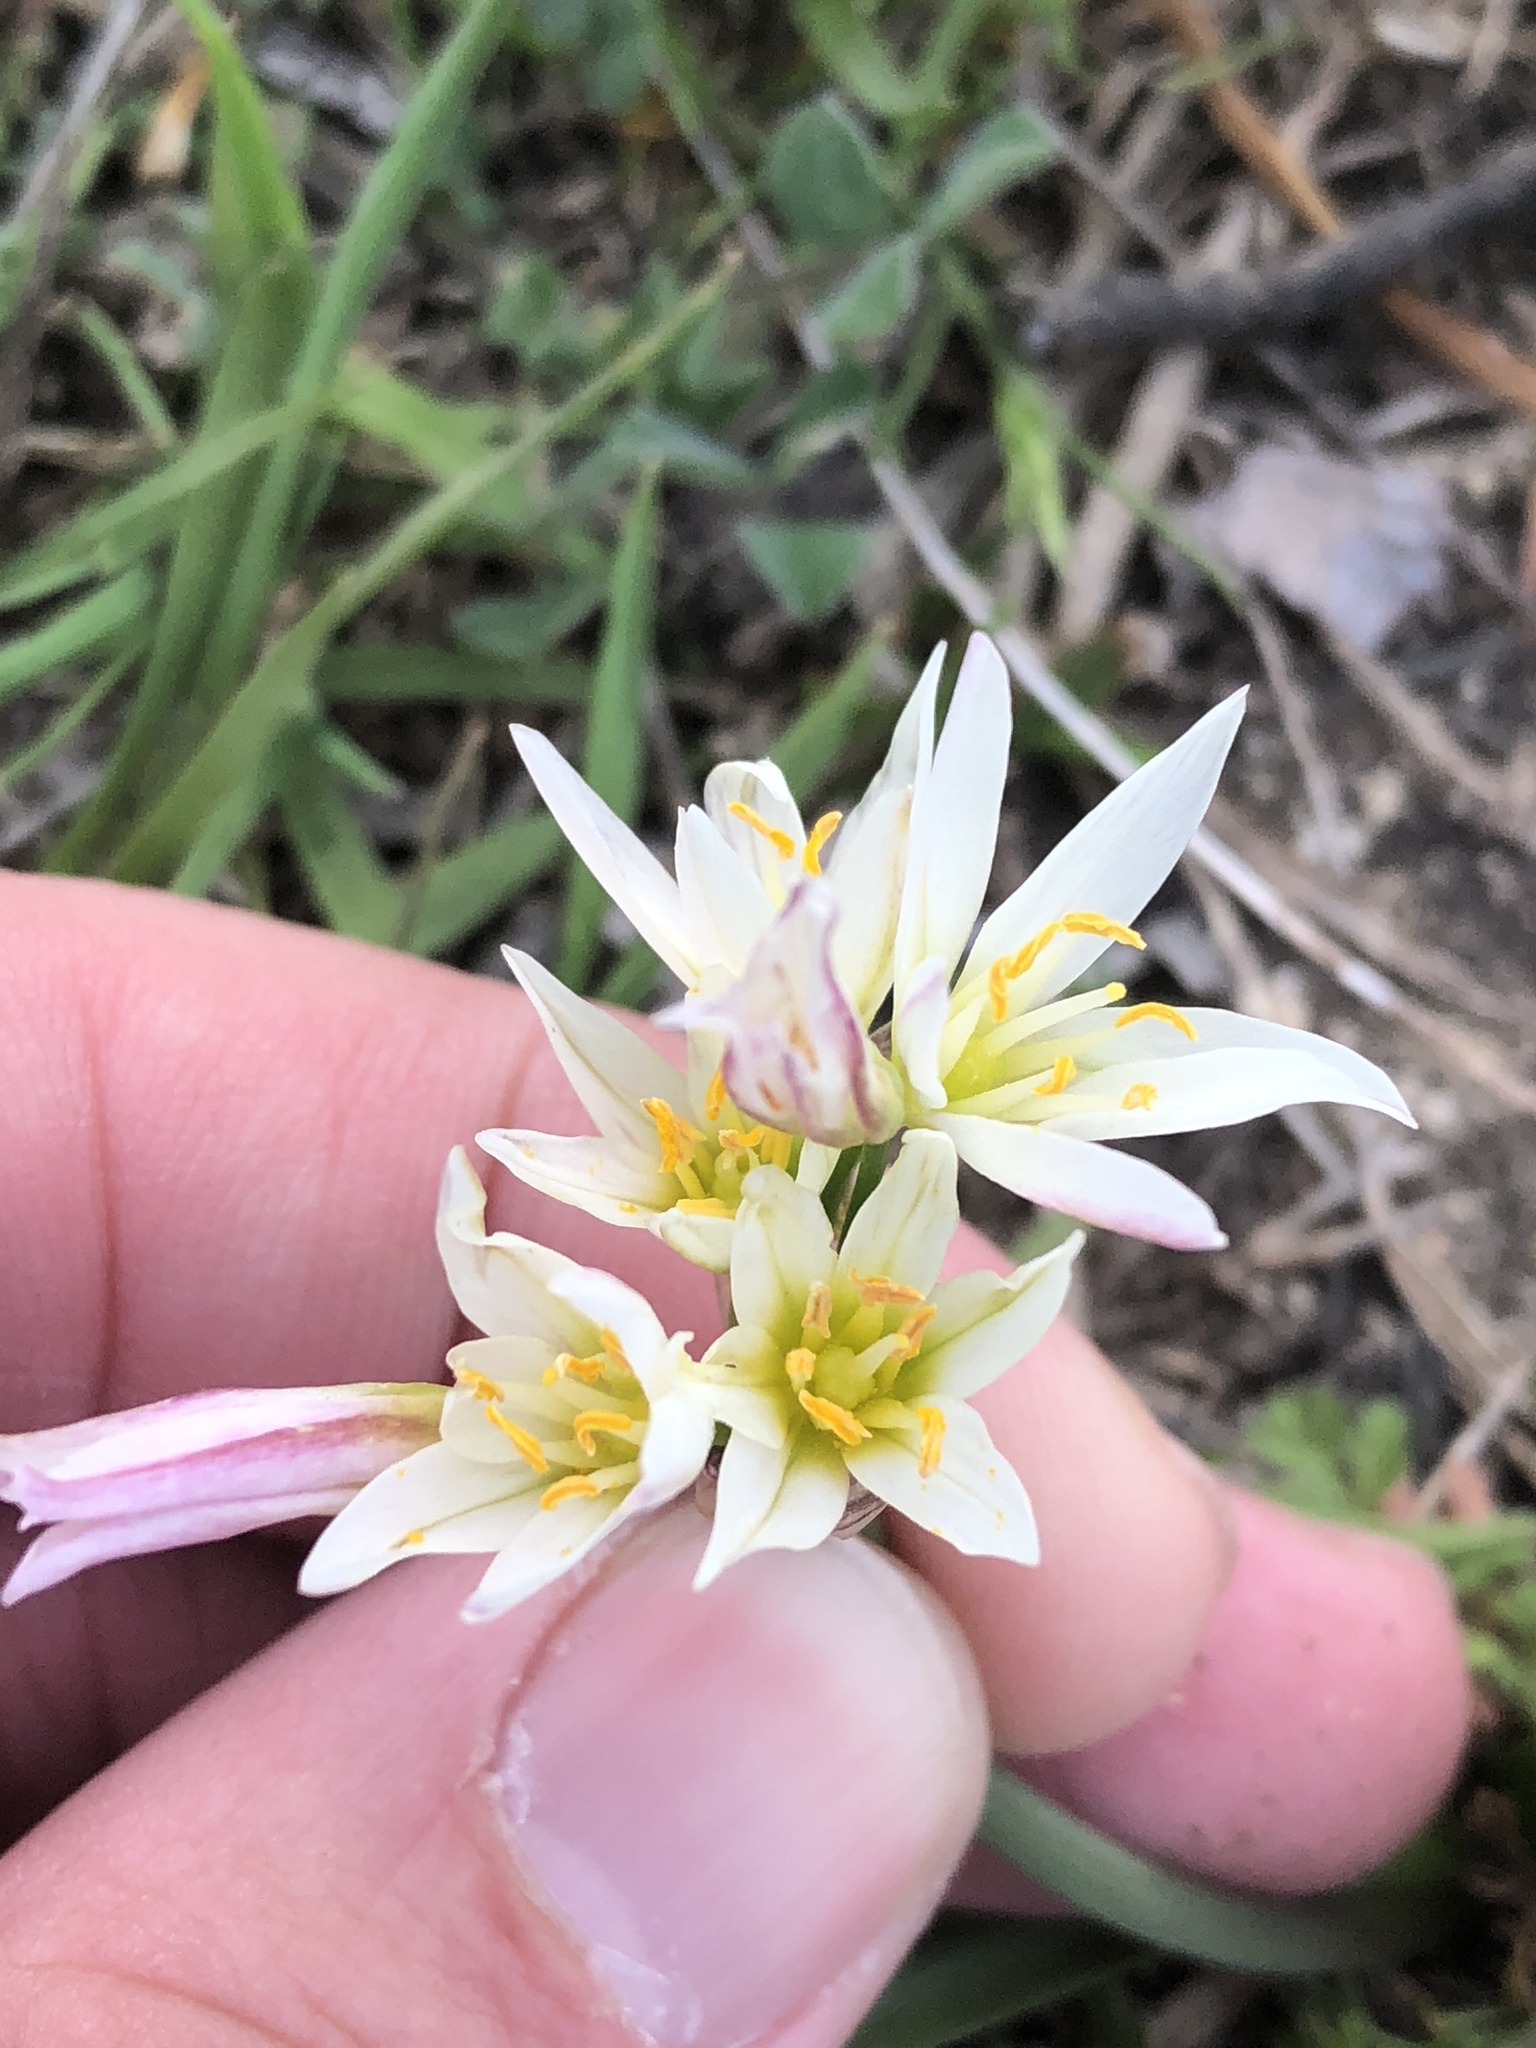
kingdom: Plantae
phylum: Tracheophyta
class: Liliopsida
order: Asparagales
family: Amaryllidaceae
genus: Nothoscordum
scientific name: Nothoscordum bivalve
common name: Crow-poison
